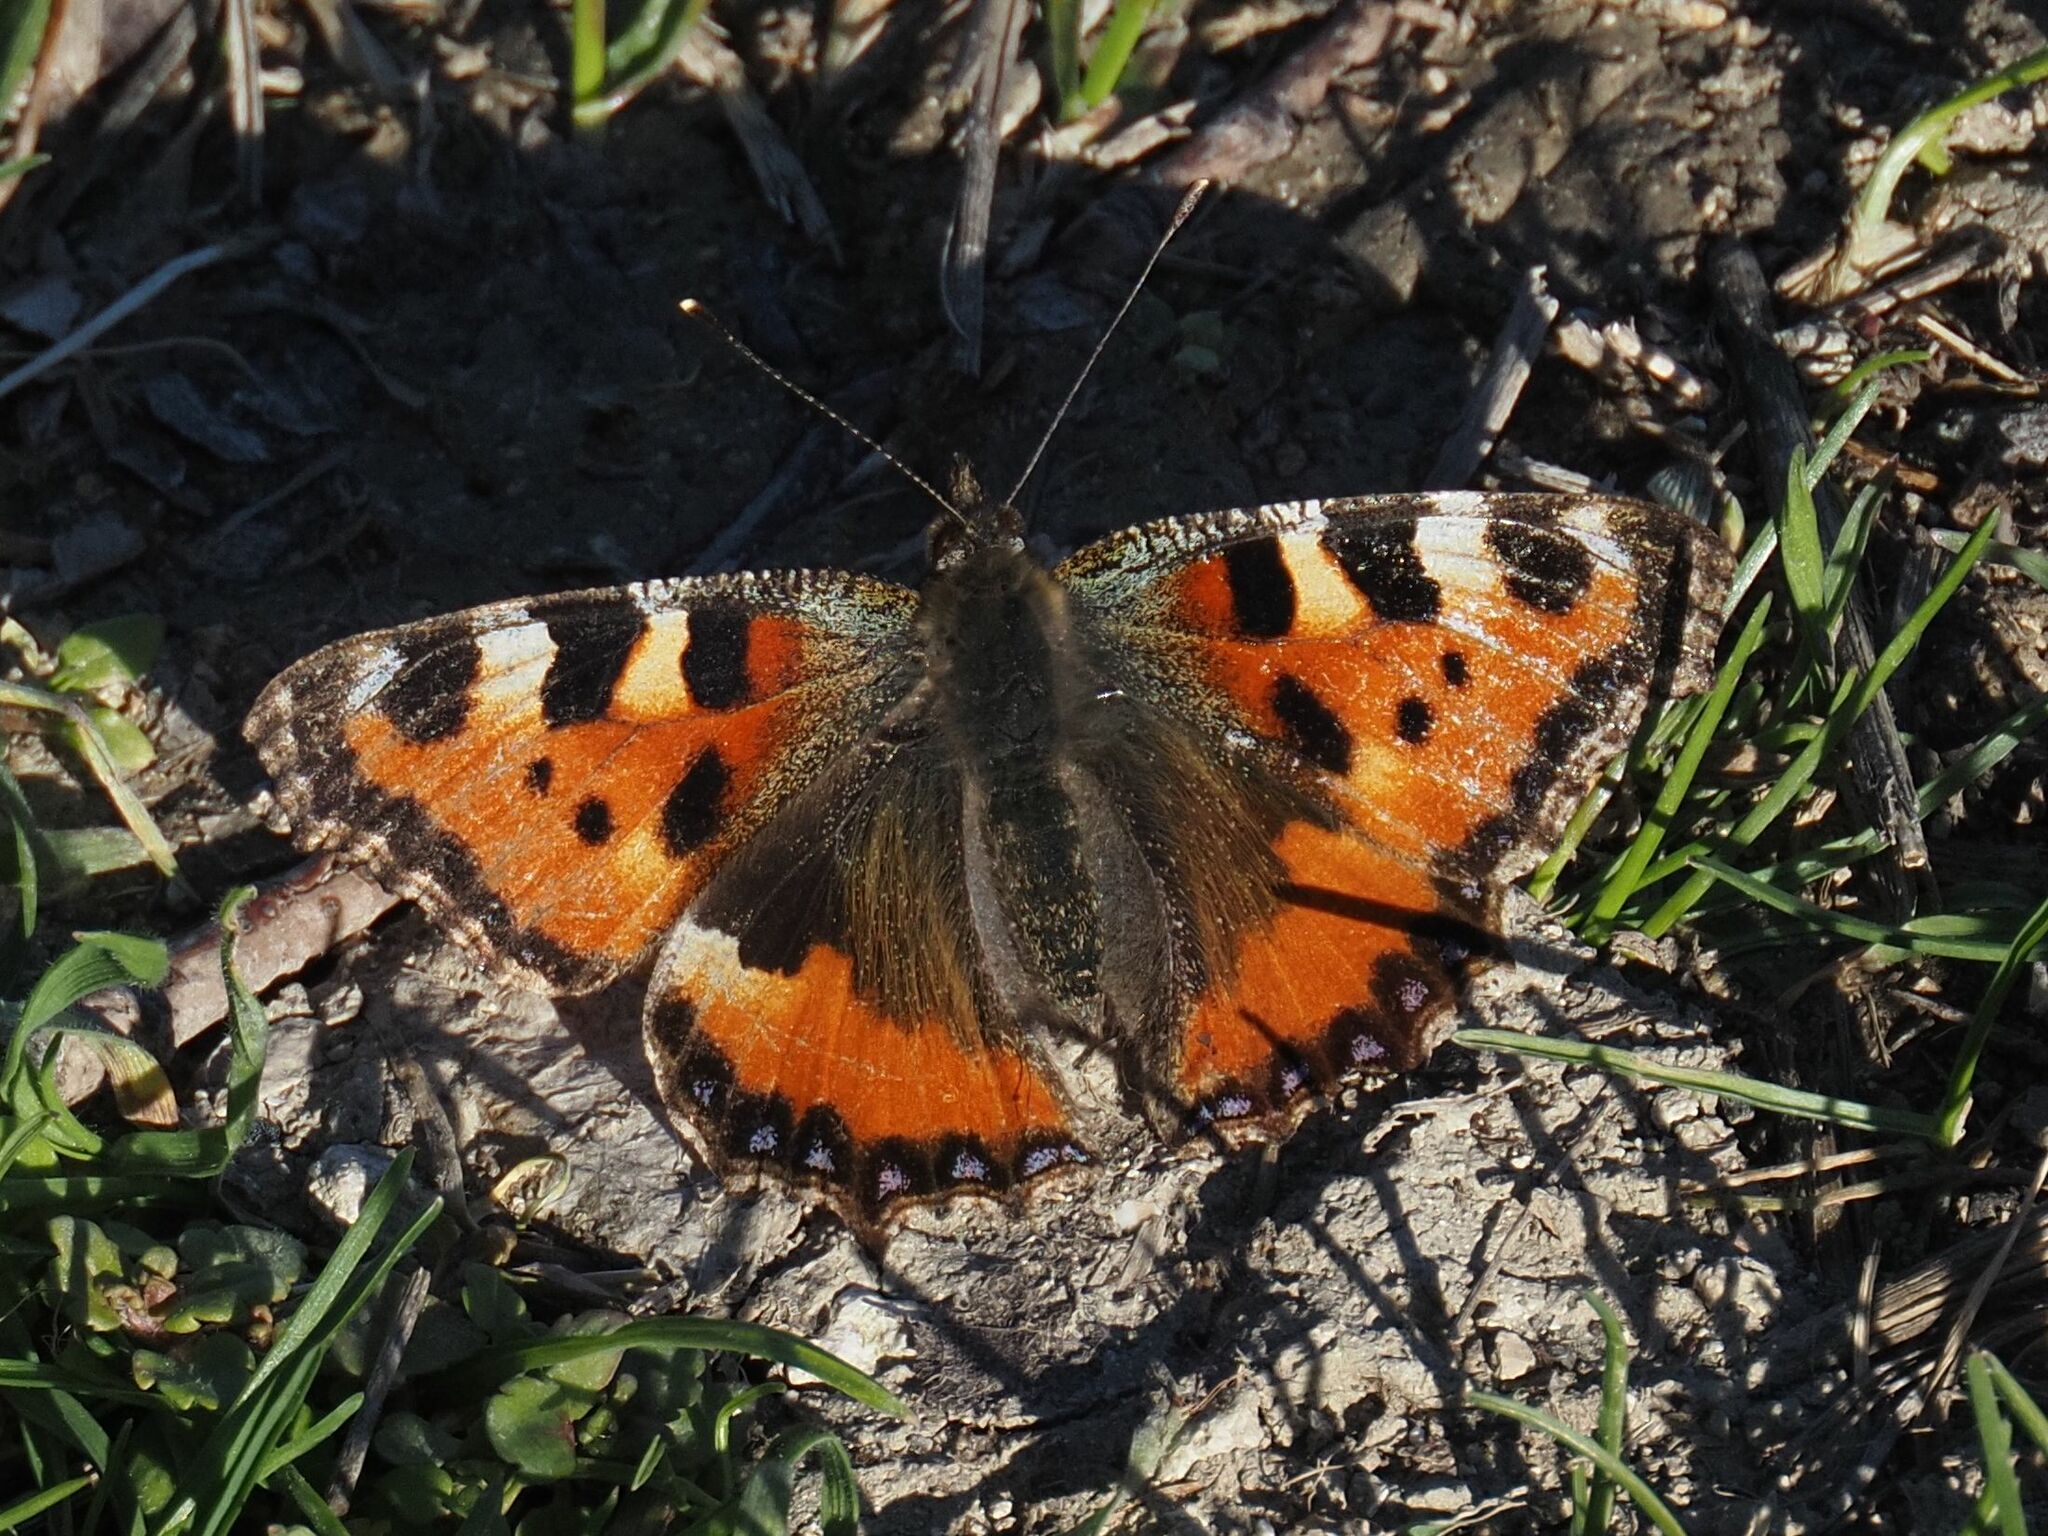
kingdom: Animalia
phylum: Arthropoda
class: Insecta
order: Lepidoptera
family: Nymphalidae
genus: Aglais
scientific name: Aglais urticae
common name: Small tortoiseshell
